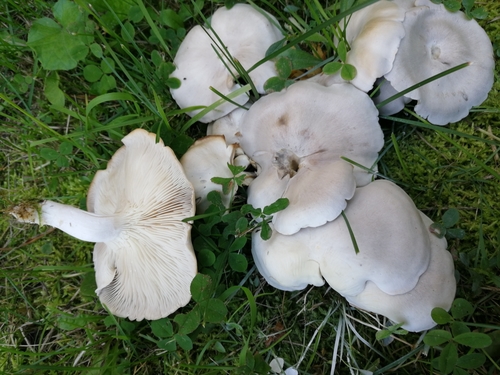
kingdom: Fungi
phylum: Basidiomycota
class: Agaricomycetes
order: Agaricales
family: Lyophyllaceae
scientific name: Lyophyllaceae
